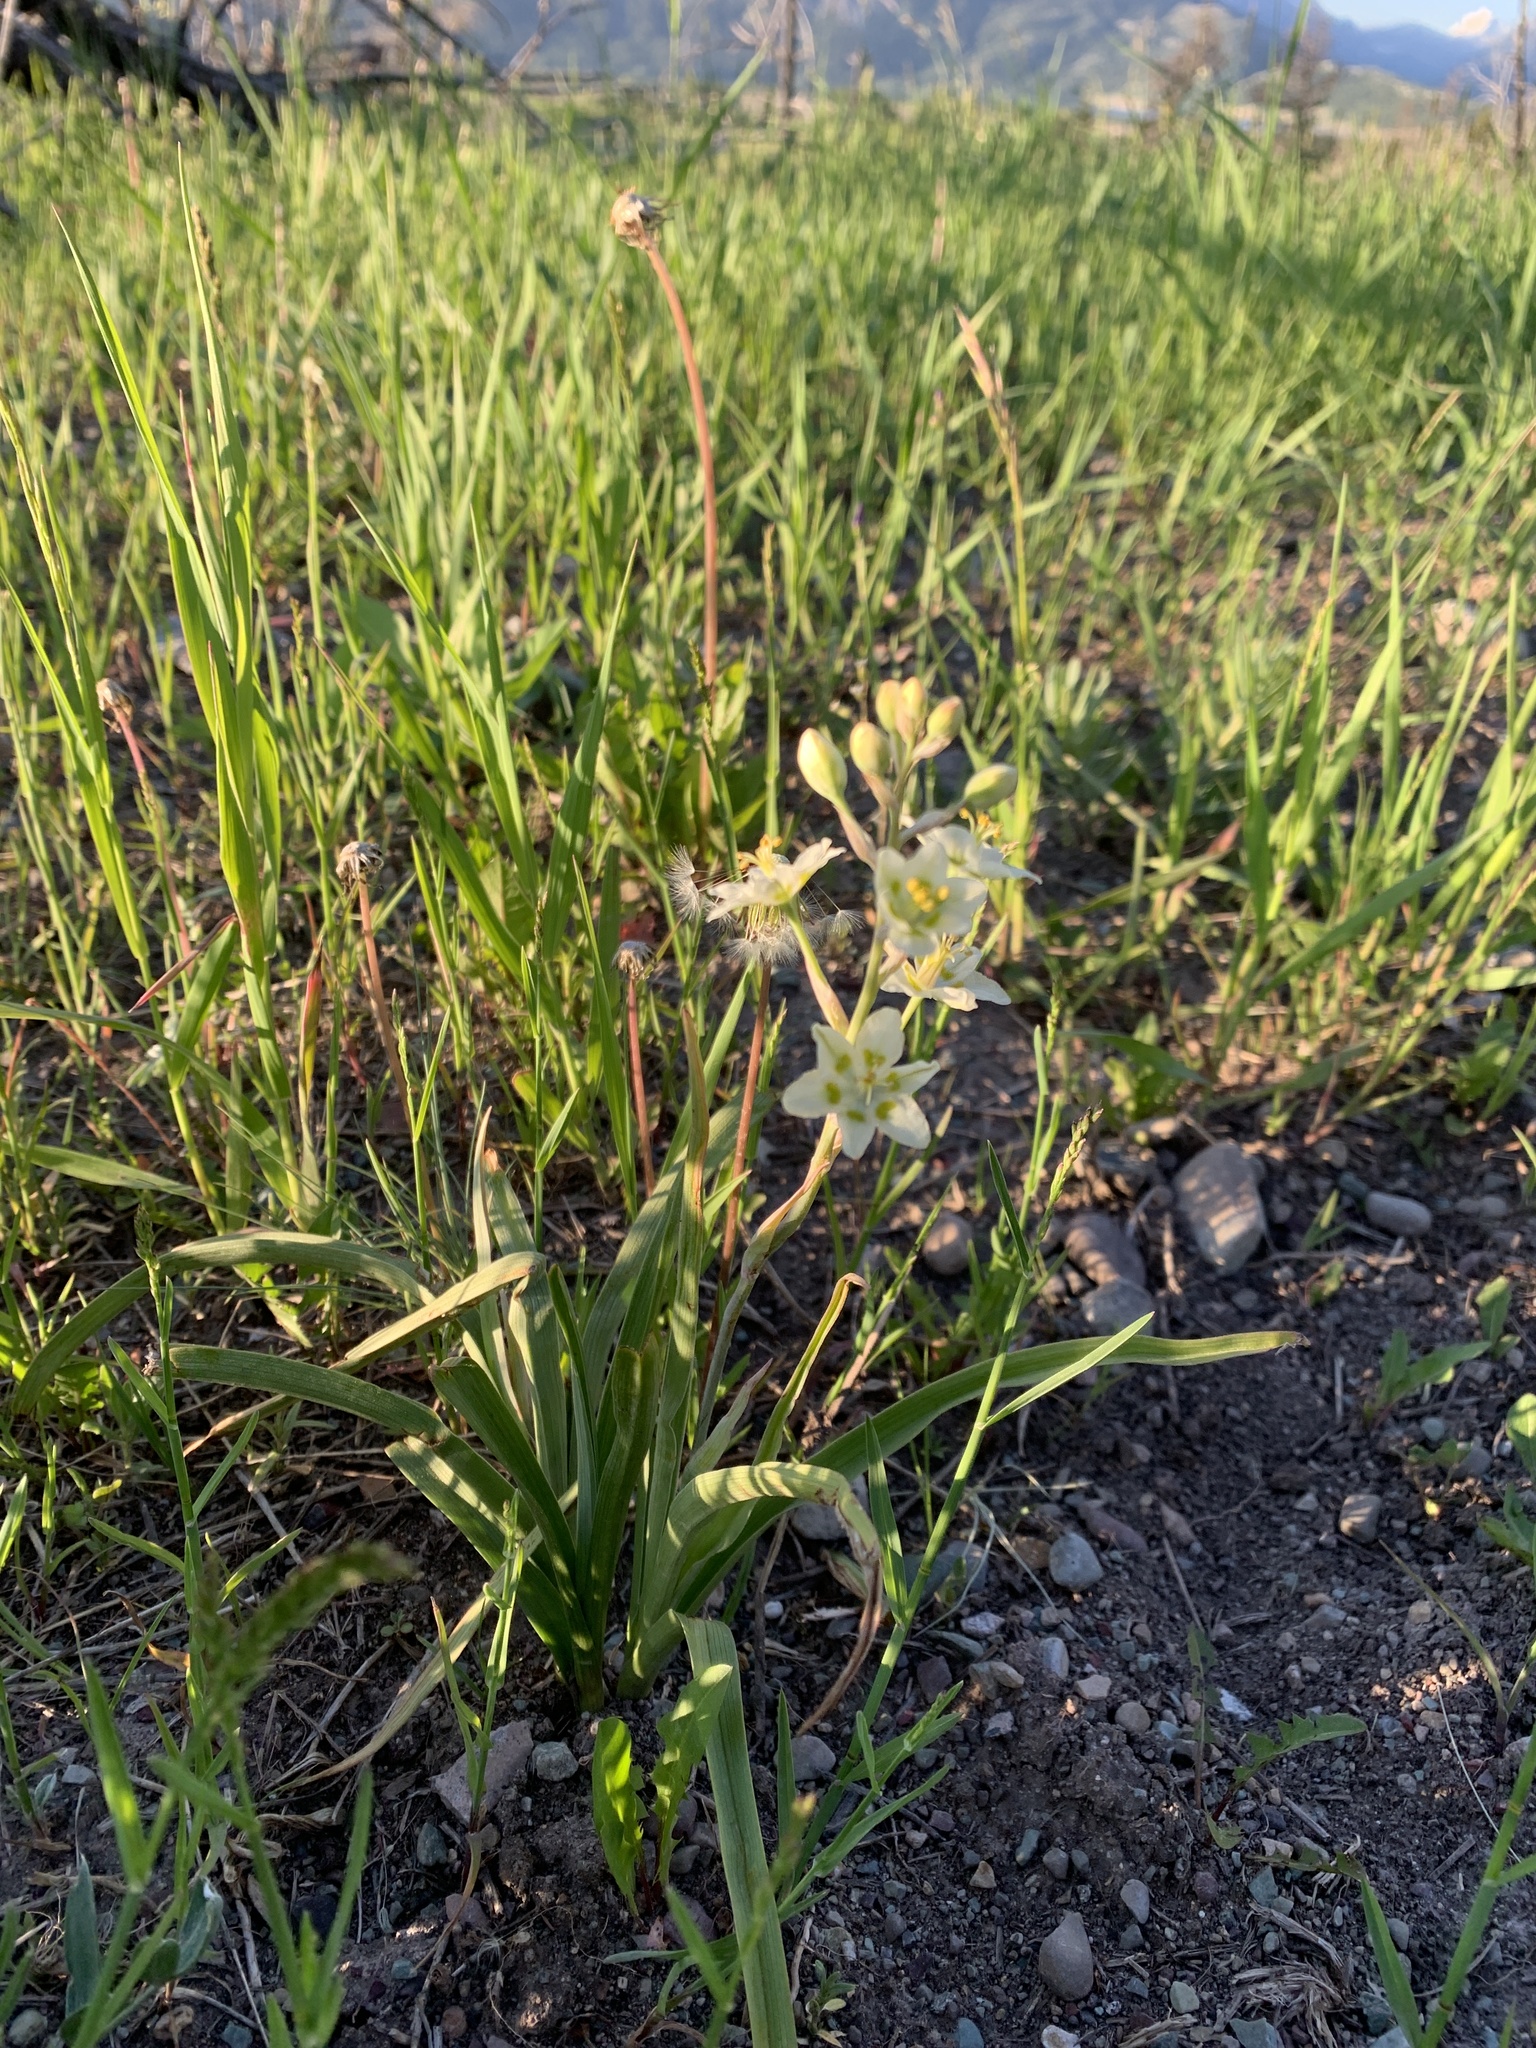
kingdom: Plantae
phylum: Tracheophyta
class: Liliopsida
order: Liliales
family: Melanthiaceae
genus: Anticlea
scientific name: Anticlea elegans
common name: Mountain death camas
